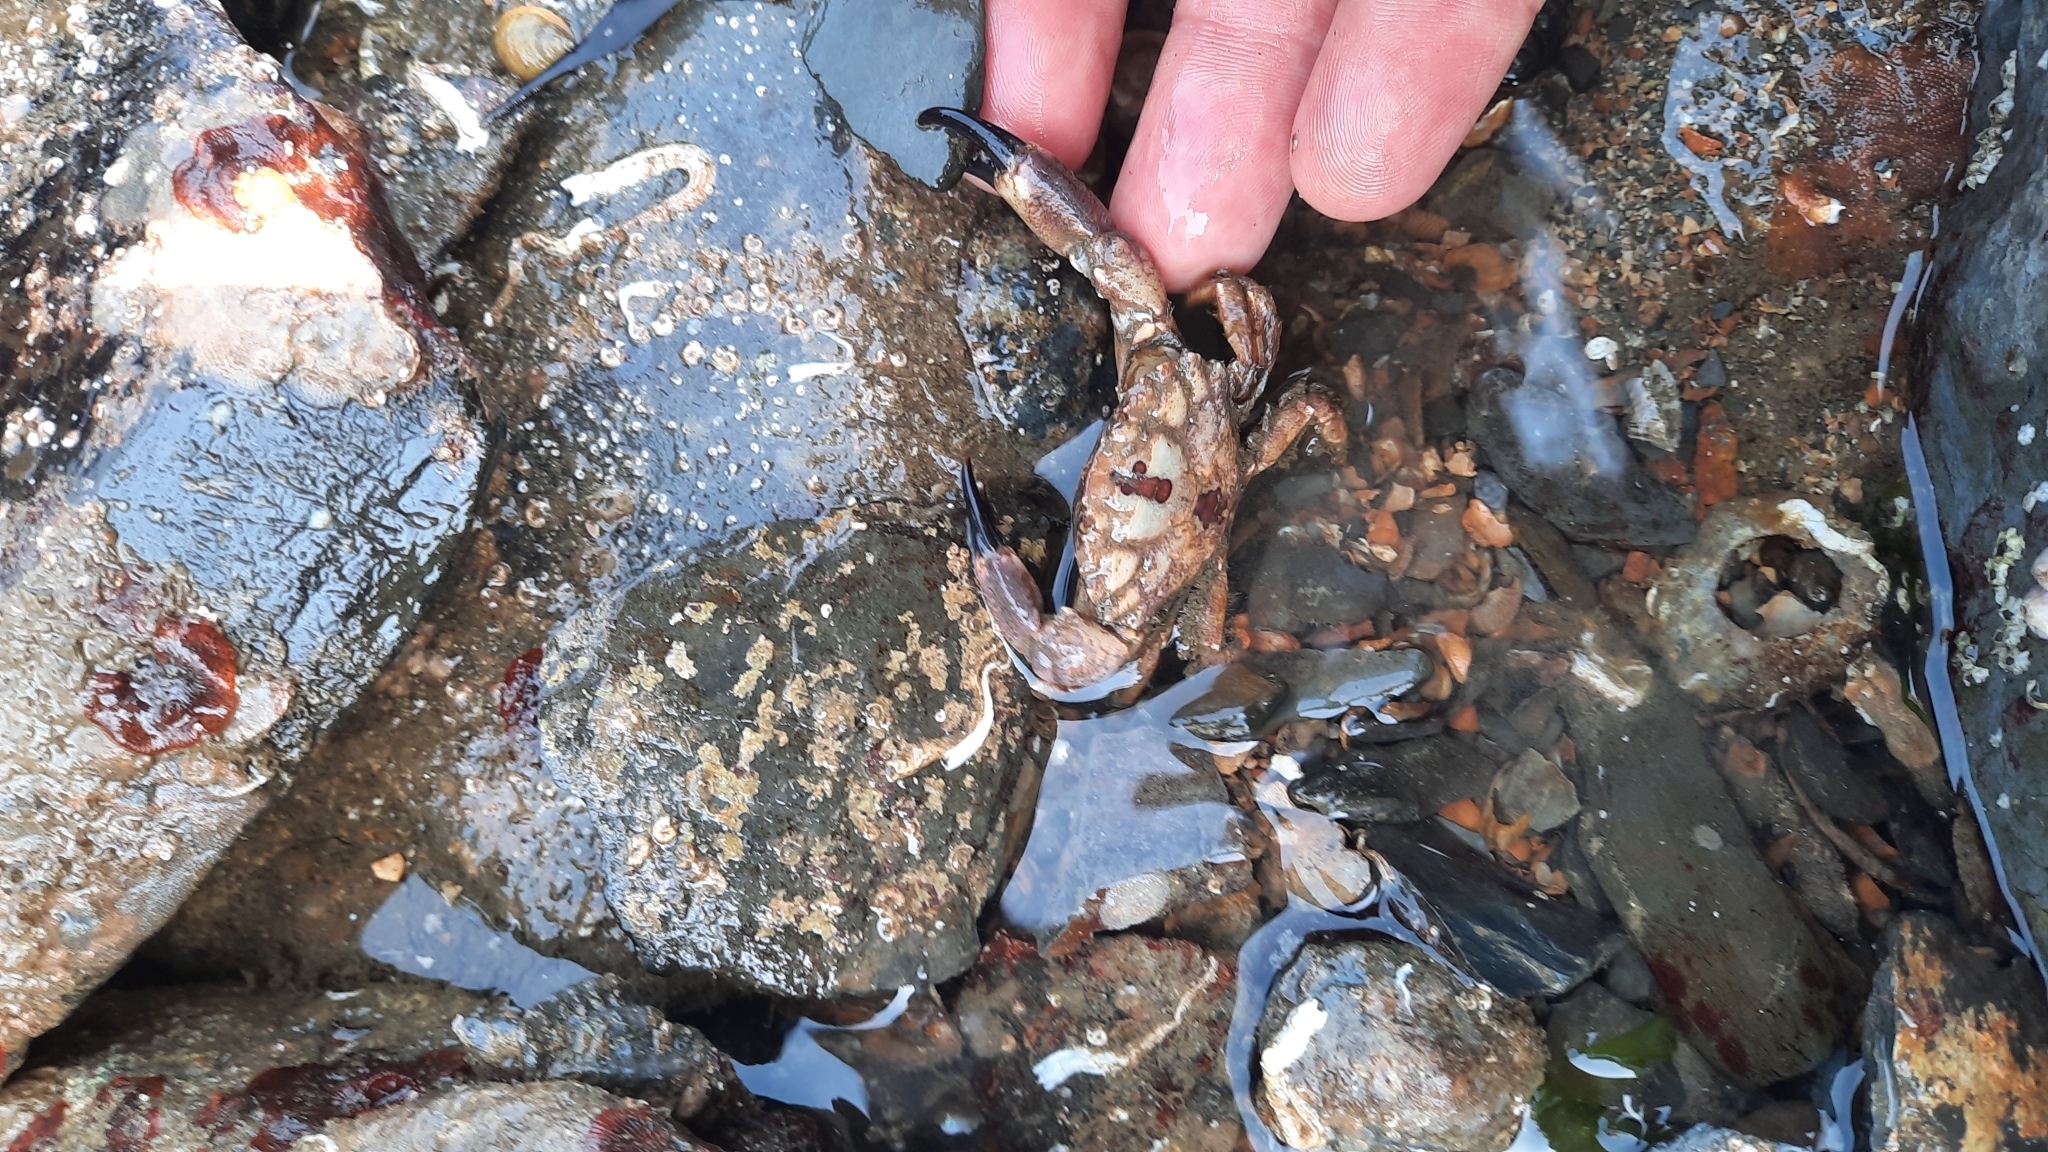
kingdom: Animalia
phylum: Arthropoda
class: Malacostraca
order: Decapoda
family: Xanthidae
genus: Xantho
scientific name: Xantho pilipes
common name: Risso's crab
